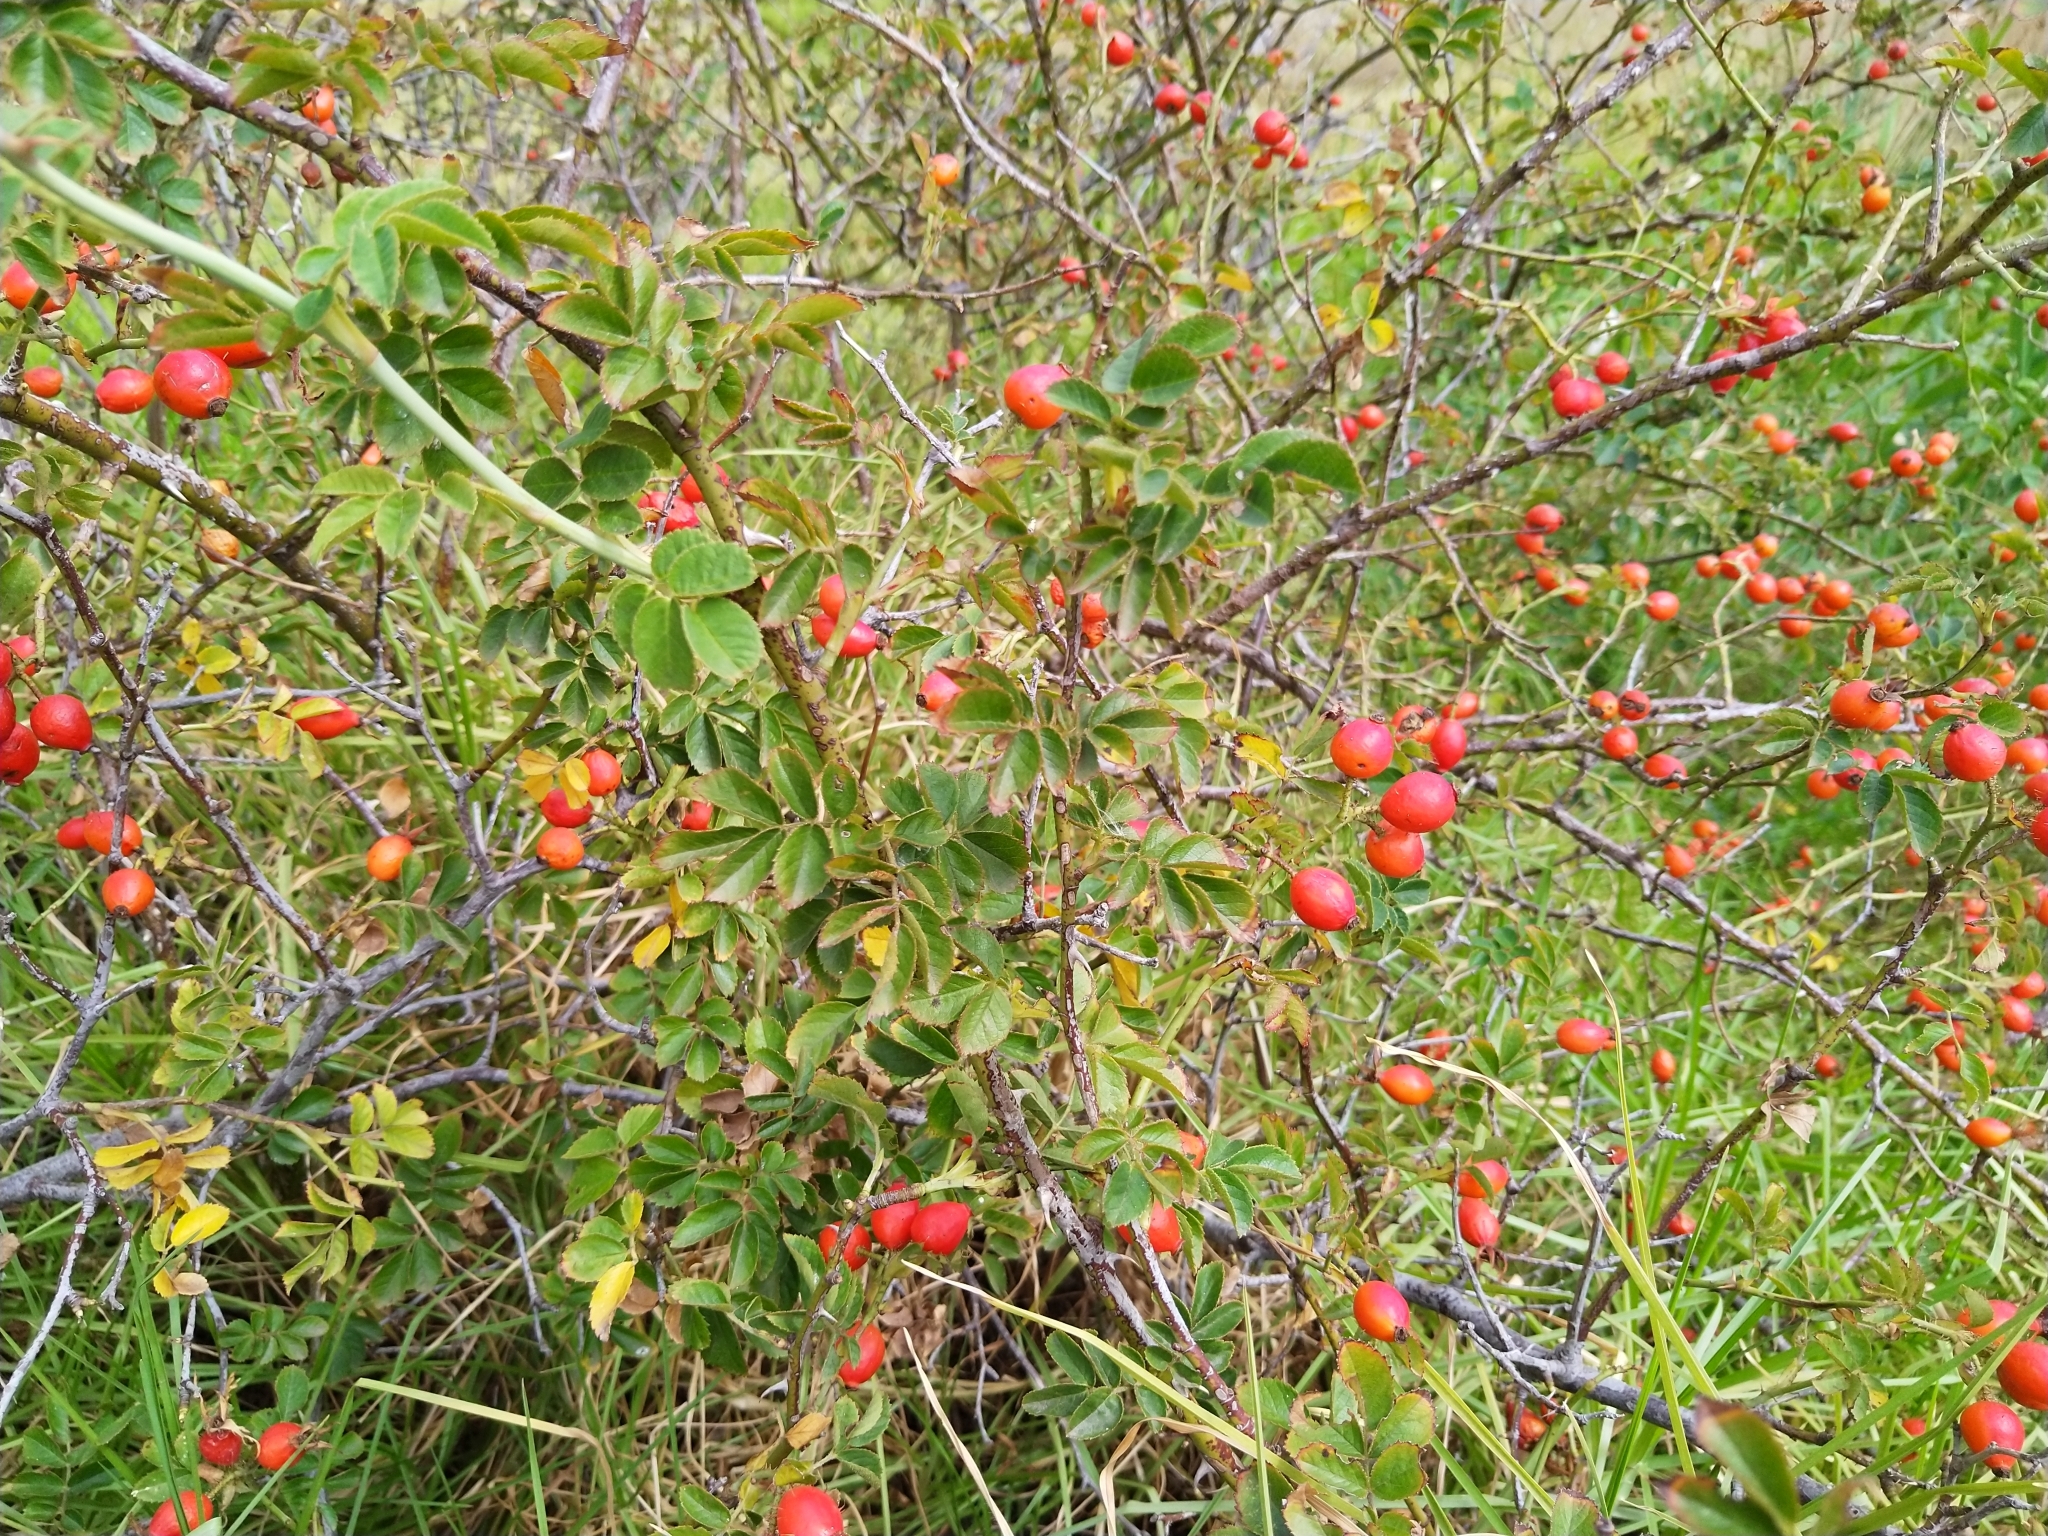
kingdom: Plantae
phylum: Tracheophyta
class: Magnoliopsida
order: Rosales
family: Rosaceae
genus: Rosa
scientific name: Rosa canina
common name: Dog rose
